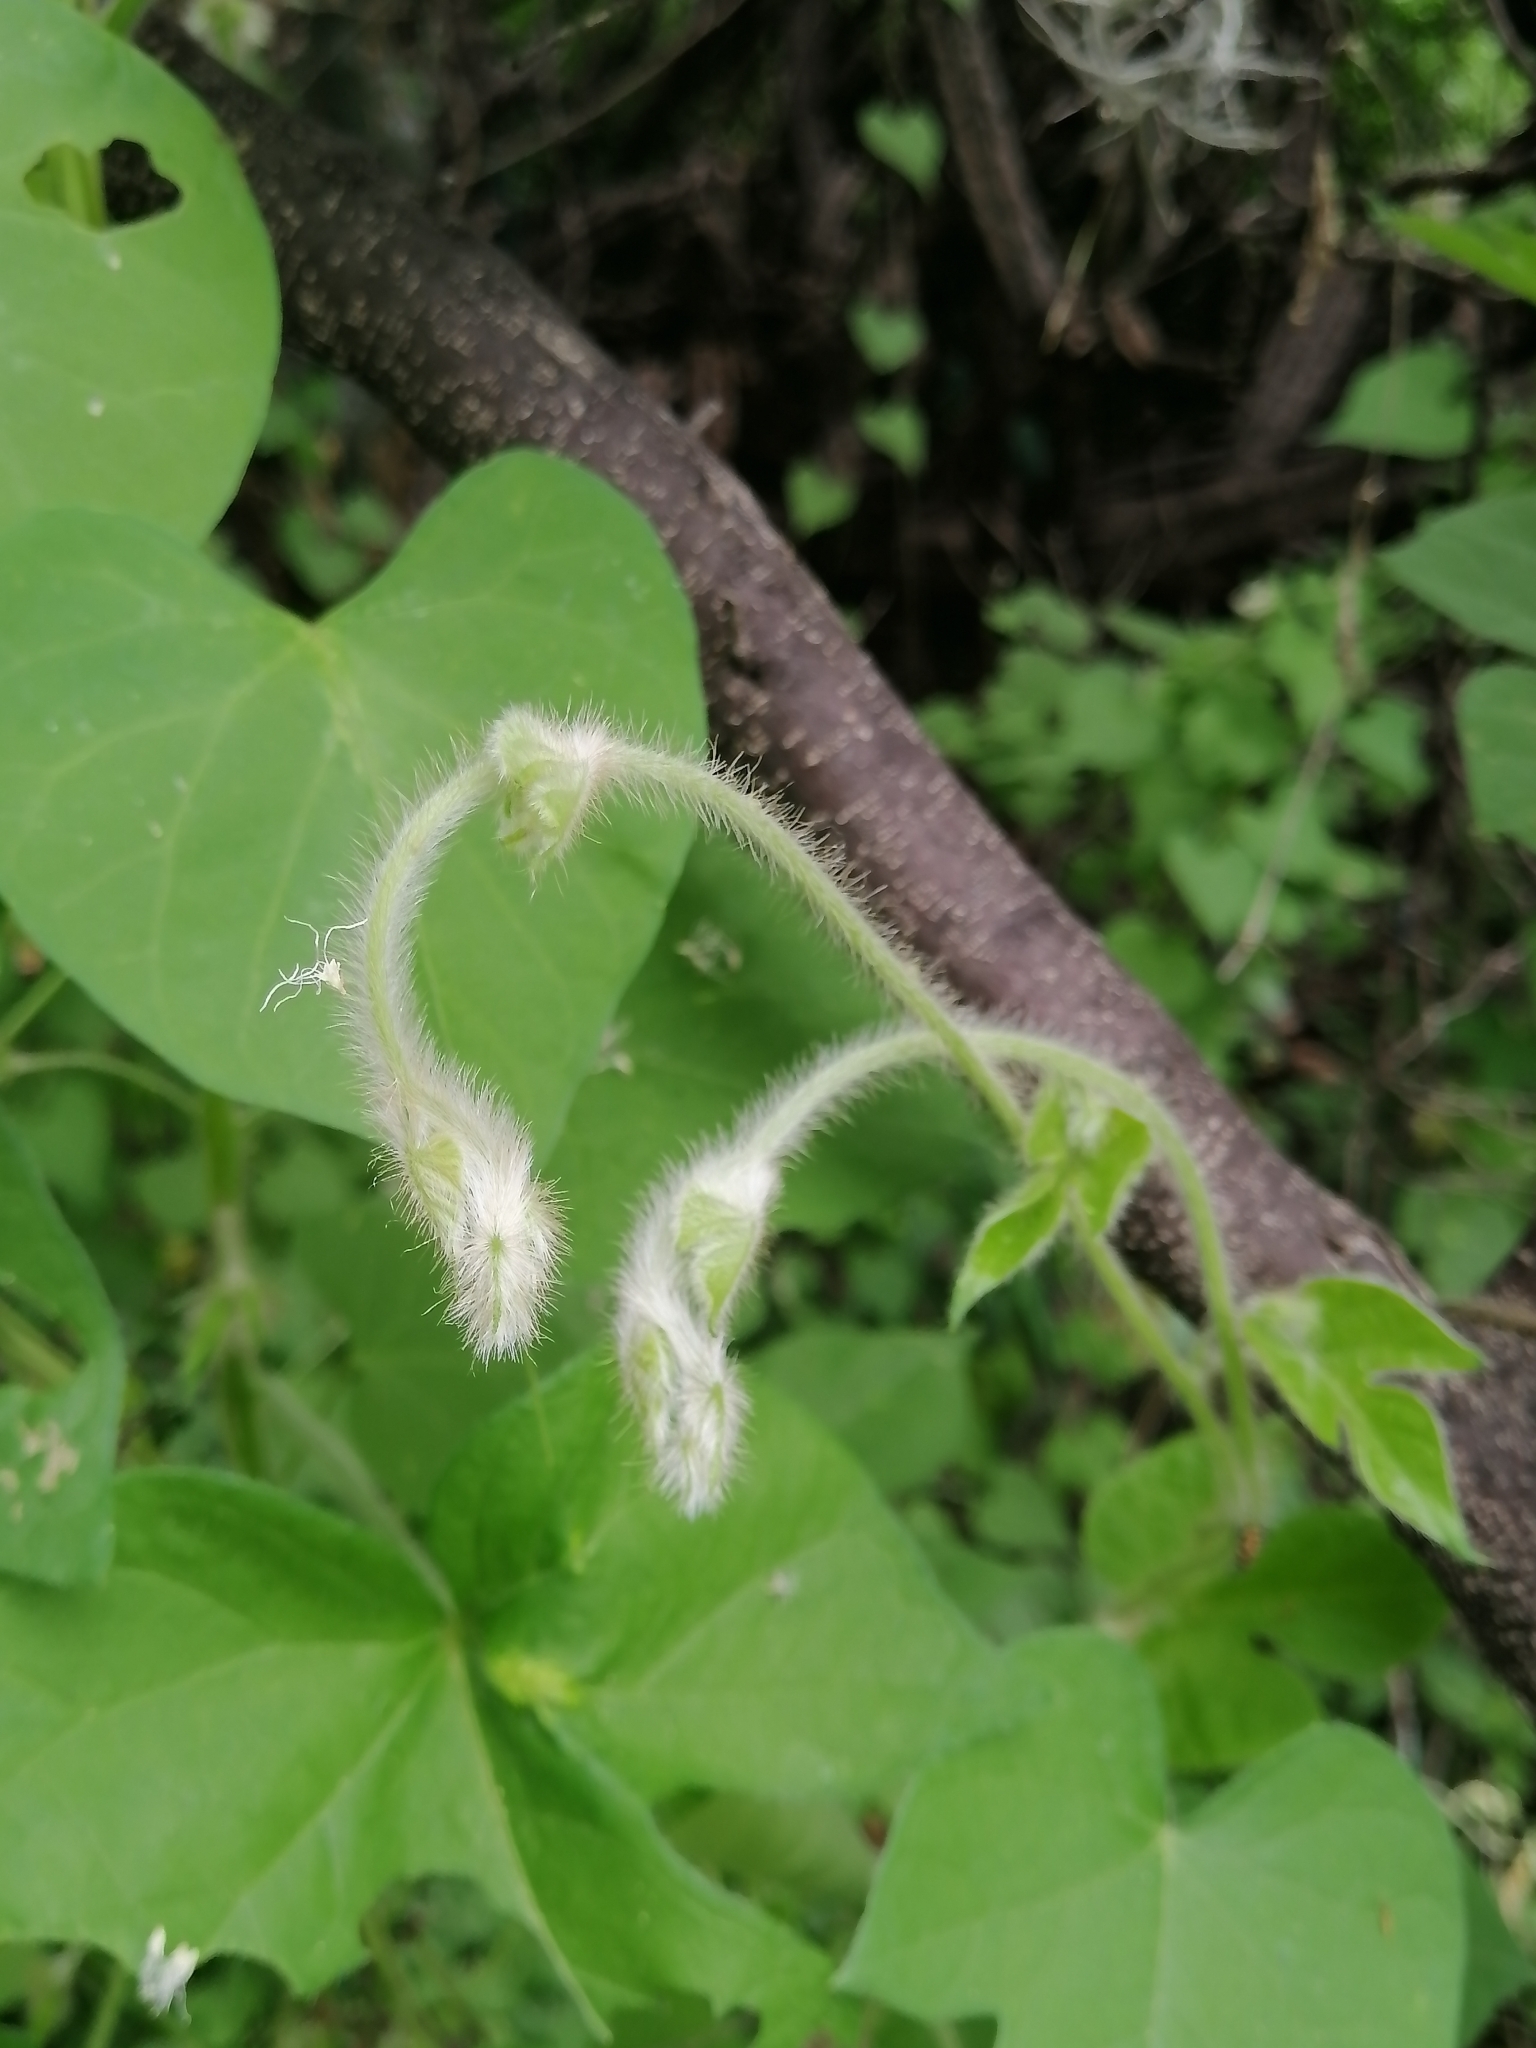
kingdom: Plantae
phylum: Tracheophyta
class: Magnoliopsida
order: Solanales
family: Convolvulaceae
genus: Ipomoea
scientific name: Ipomoea purpurea
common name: Common morning-glory
